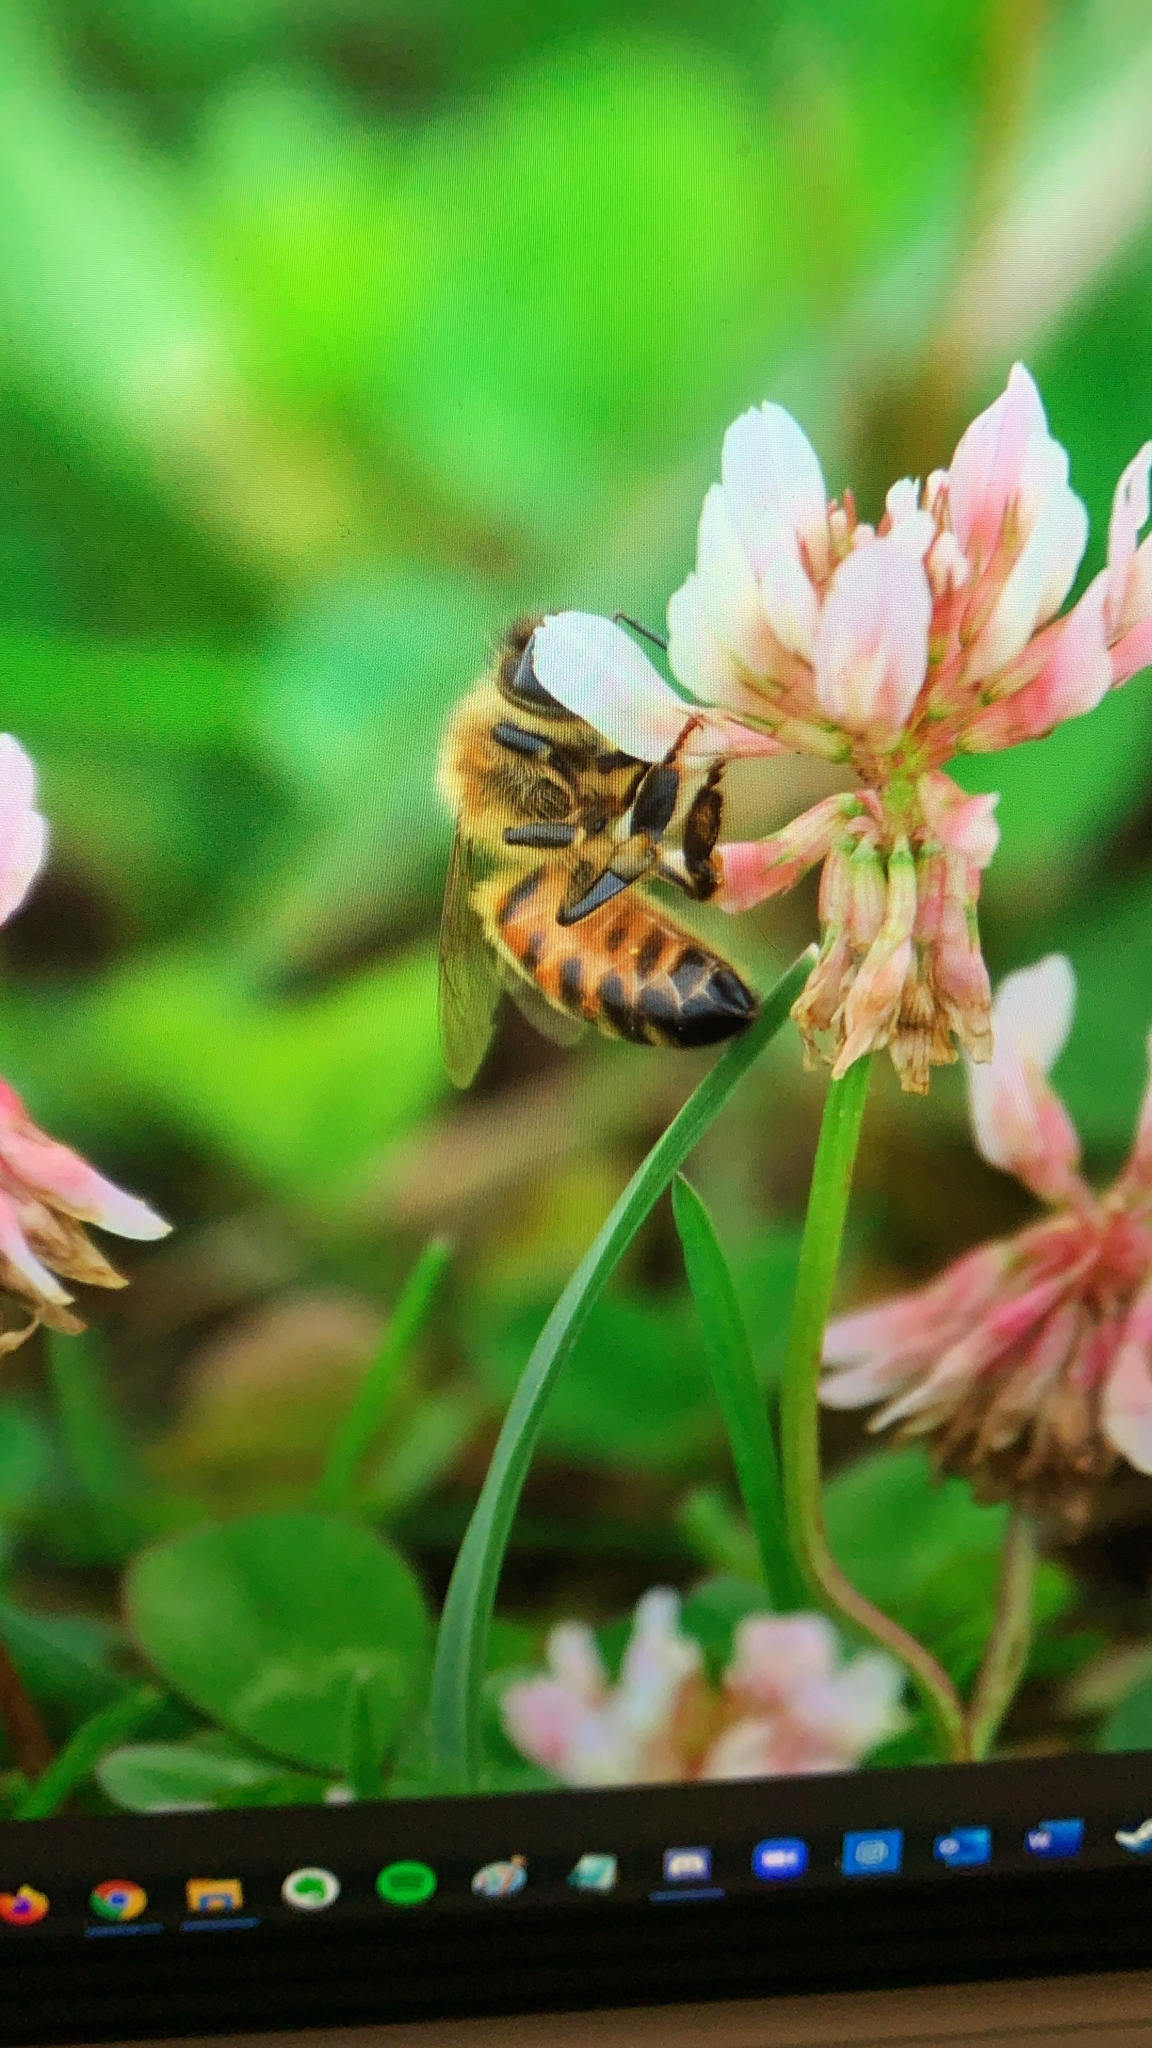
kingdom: Animalia
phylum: Arthropoda
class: Insecta
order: Hymenoptera
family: Apidae
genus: Apis
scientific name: Apis mellifera
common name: Honey bee
